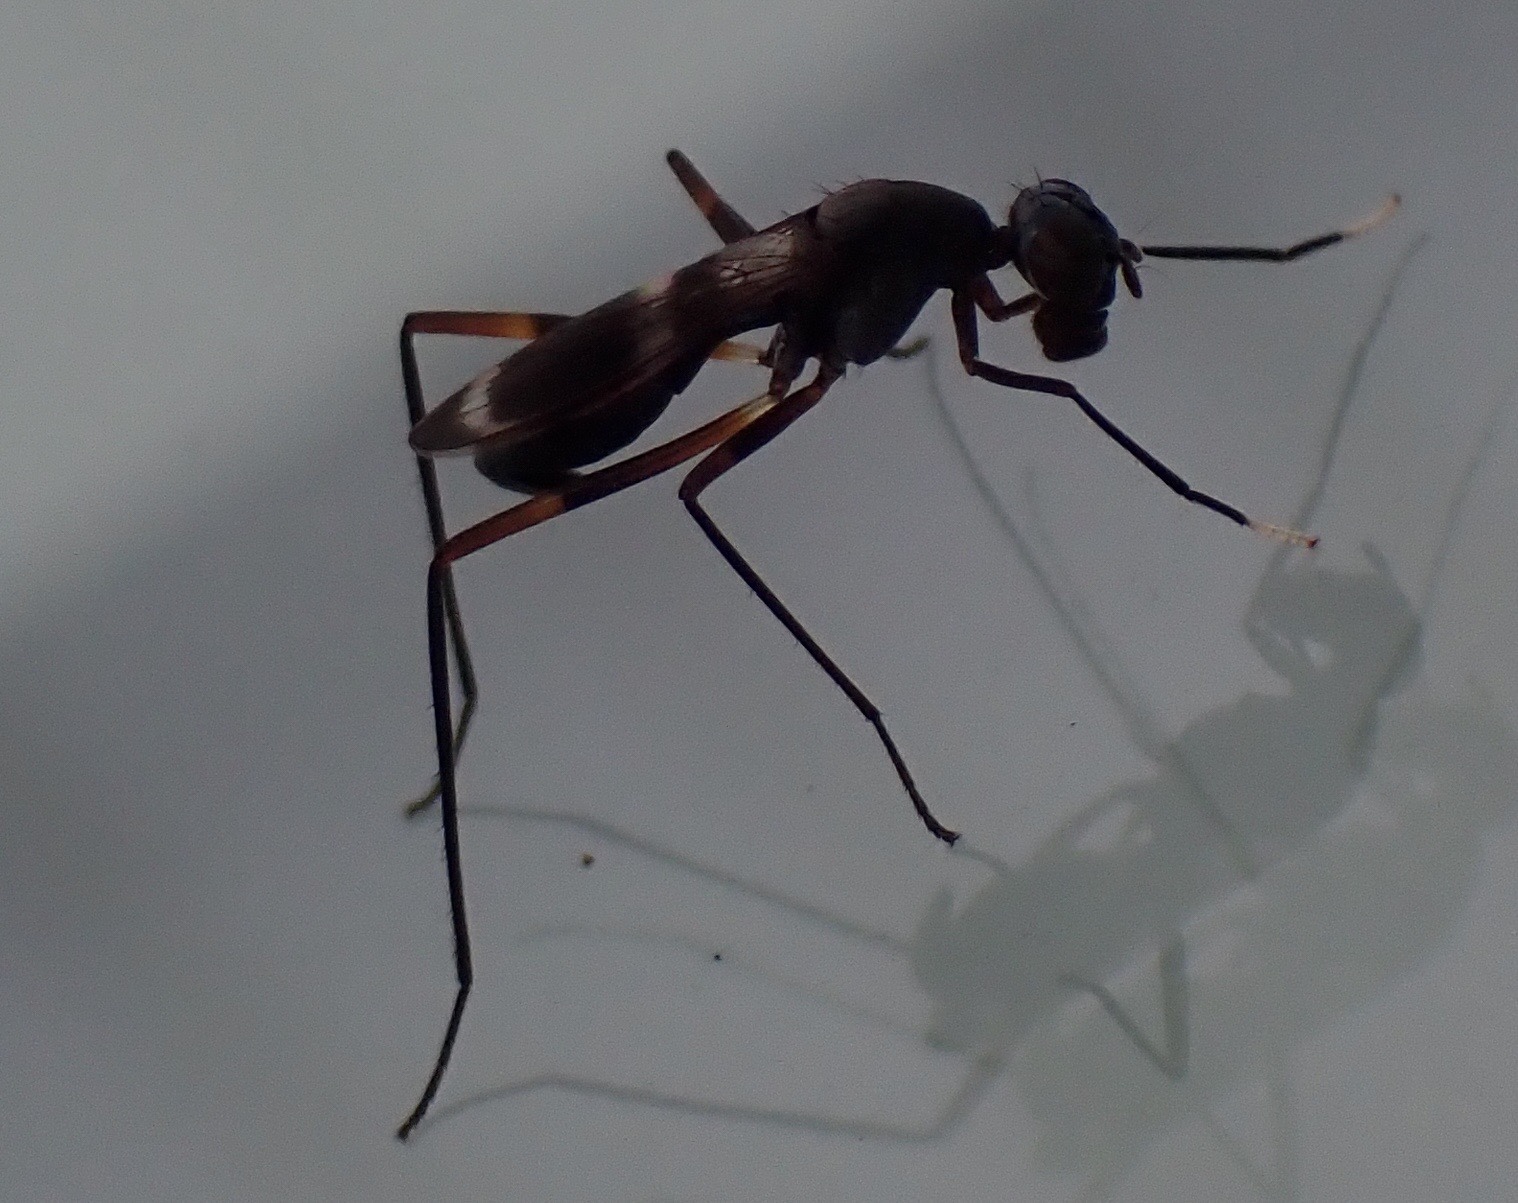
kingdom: Animalia
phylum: Arthropoda
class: Insecta
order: Diptera
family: Micropezidae
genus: Taeniaptera
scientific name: Taeniaptera trivittata
